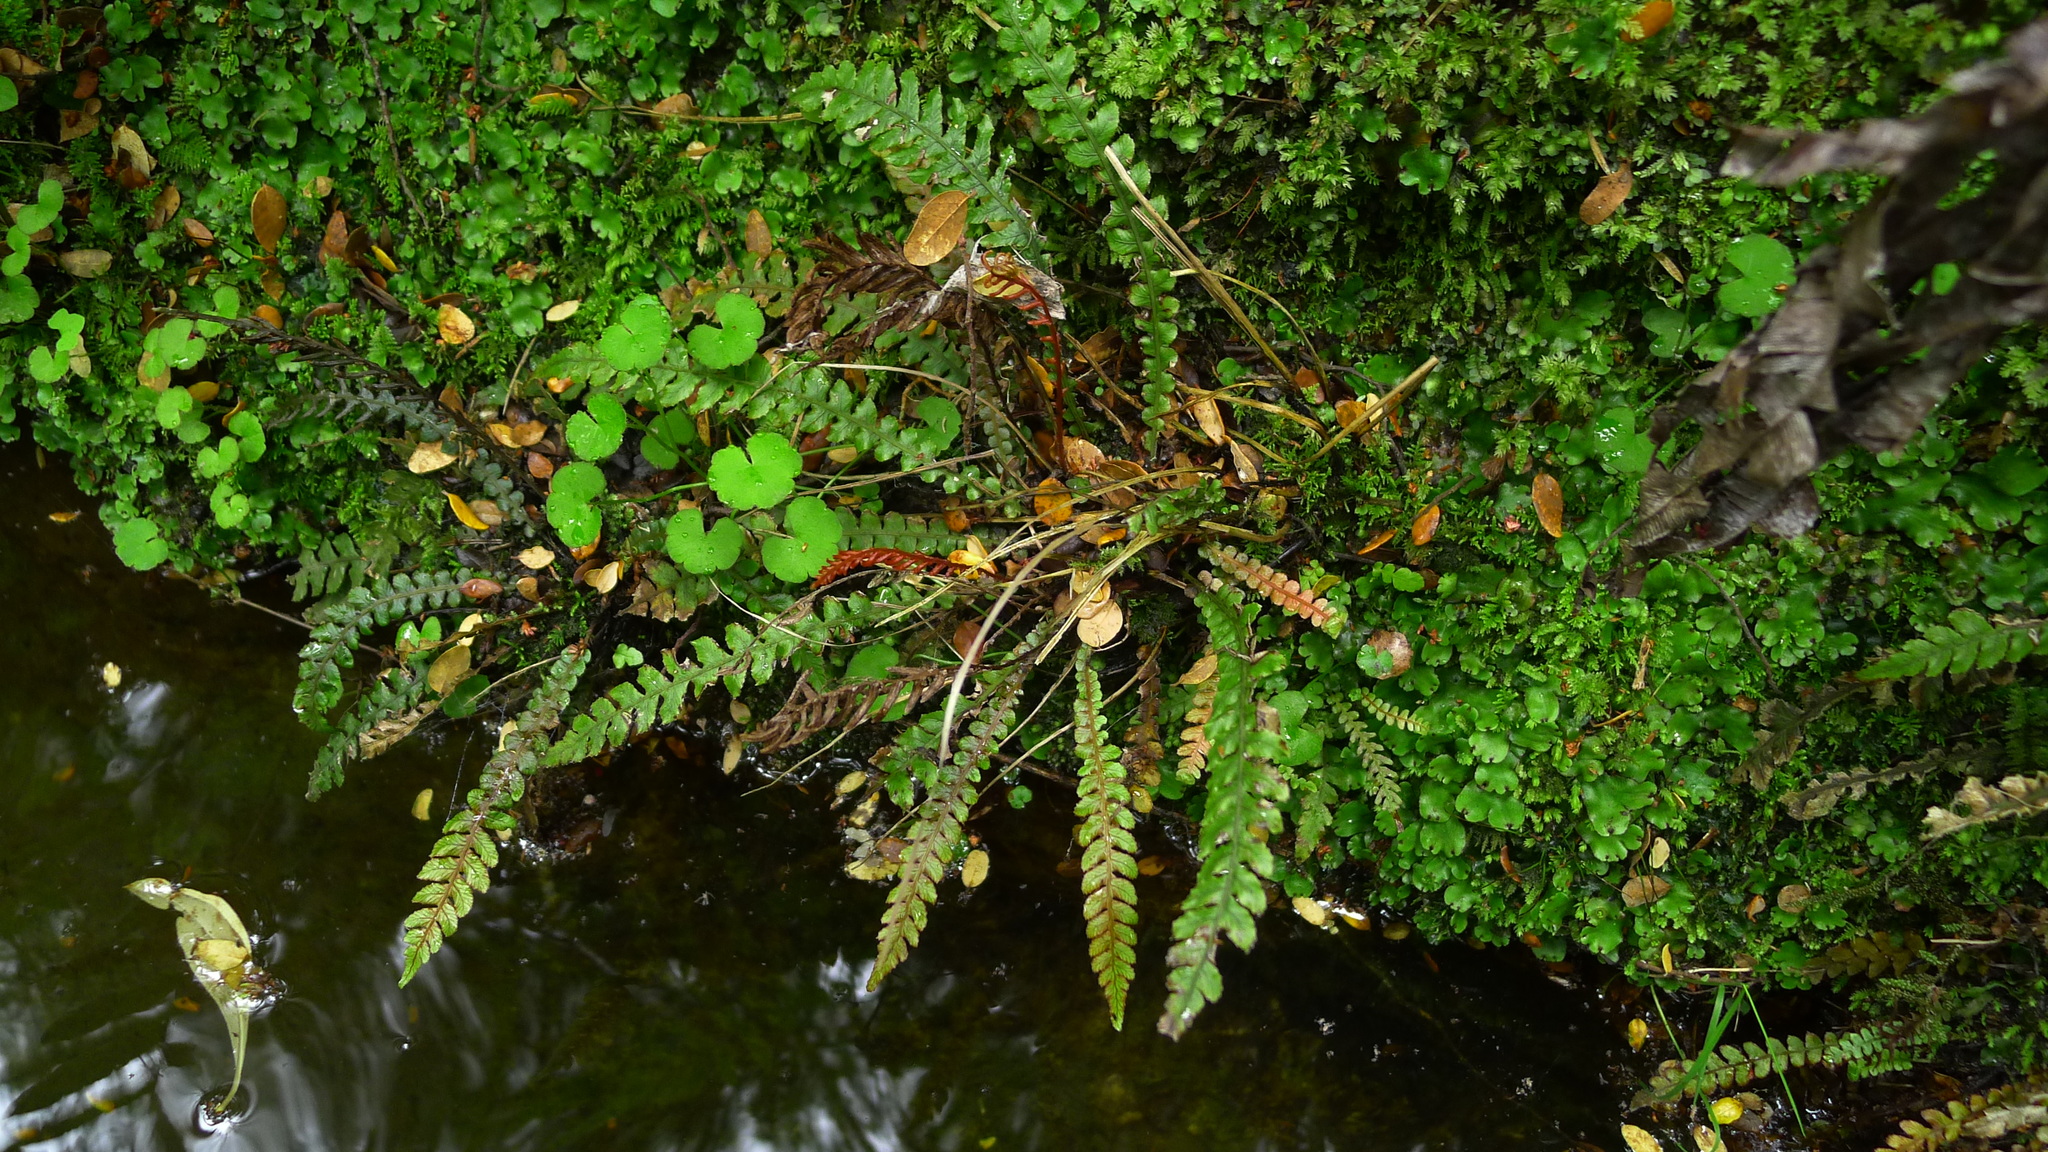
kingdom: Plantae
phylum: Tracheophyta
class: Polypodiopsida
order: Polypodiales
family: Blechnaceae
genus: Austroblechnum
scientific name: Austroblechnum membranaceum
